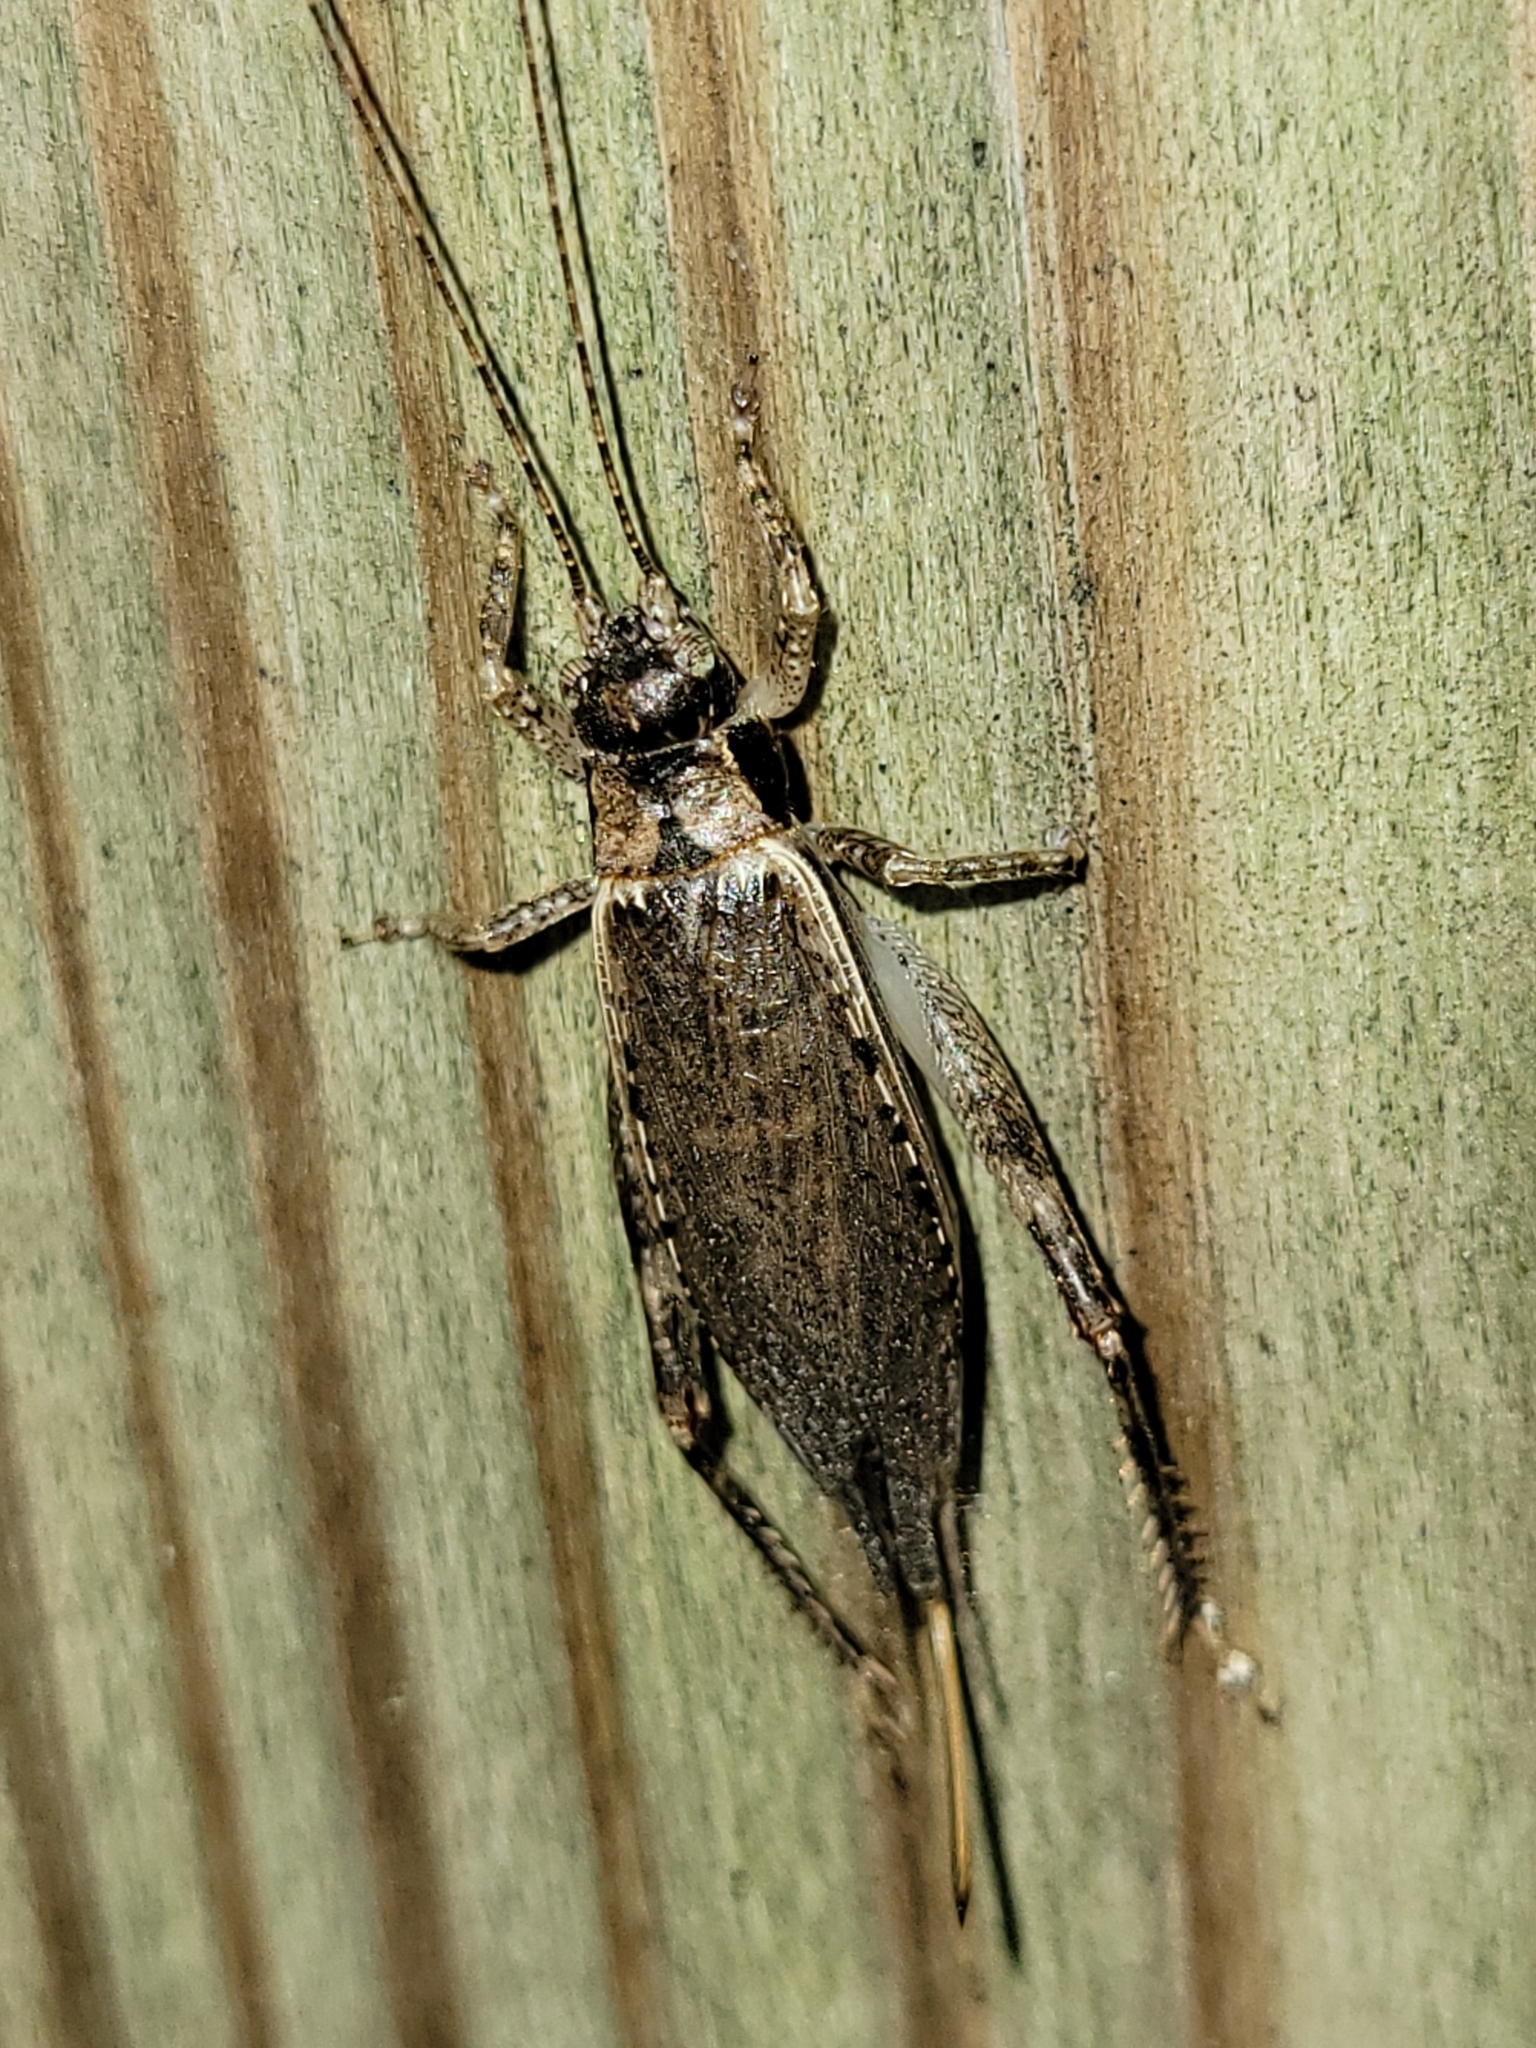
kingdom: Animalia
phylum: Arthropoda
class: Insecta
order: Orthoptera
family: Gryllidae
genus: Hapithus
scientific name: Hapithus saltator
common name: Jumping bush cricket
